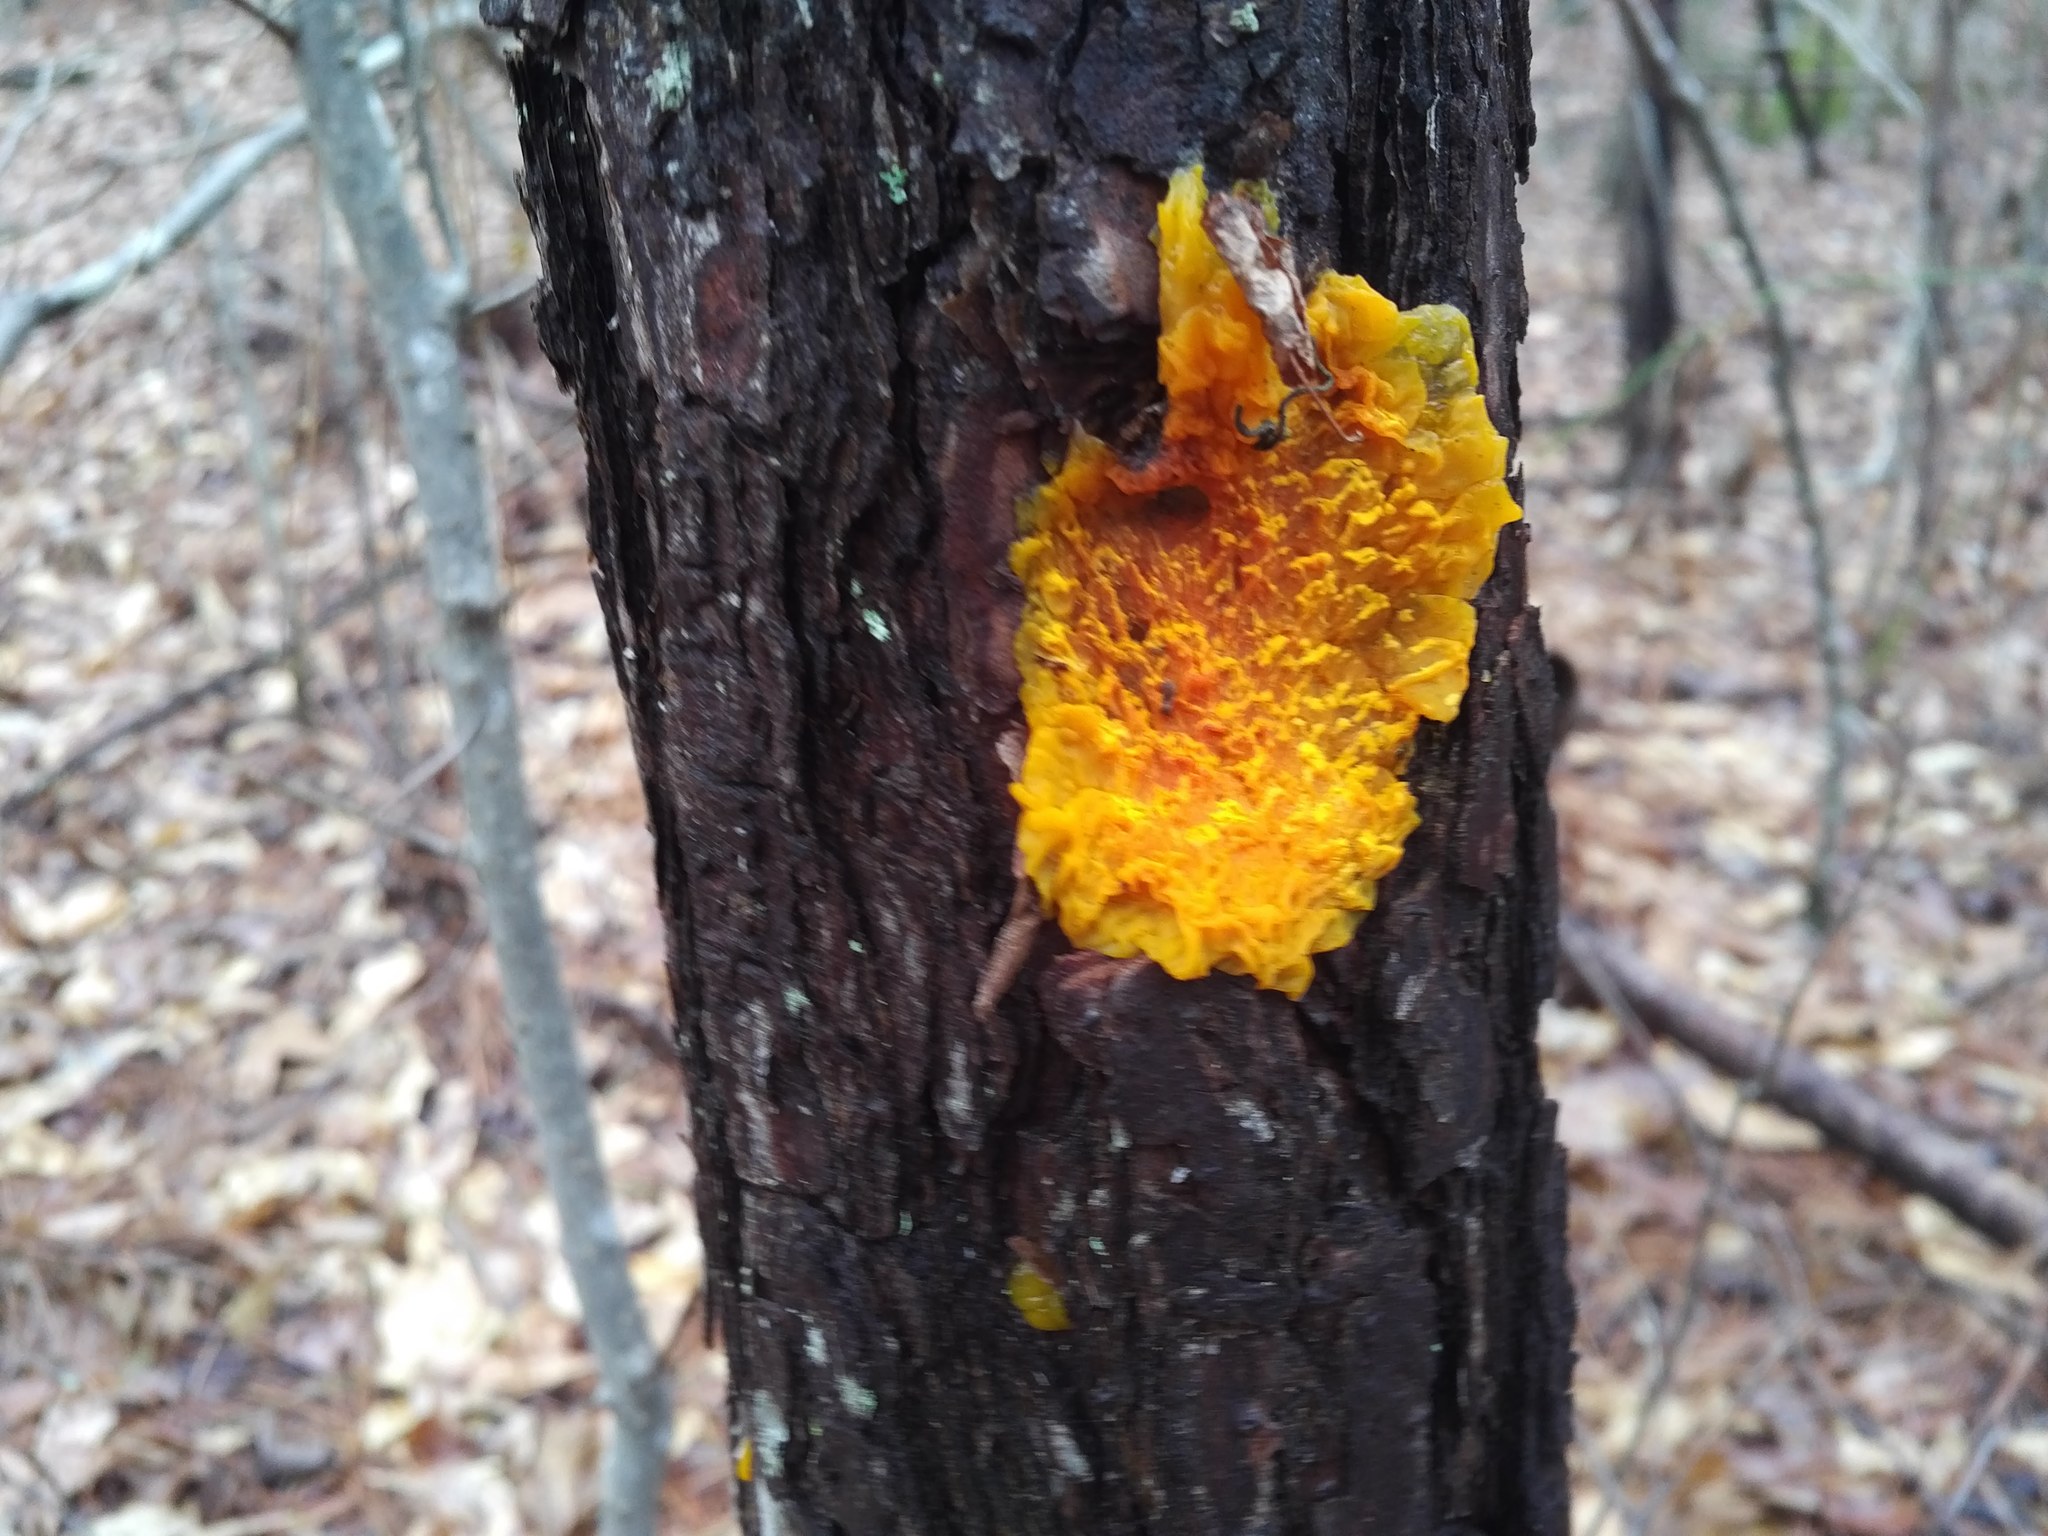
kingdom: Fungi
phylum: Basidiomycota
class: Dacrymycetes
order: Dacrymycetales
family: Dacrymycetaceae
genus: Dacrymyces
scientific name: Dacrymyces chrysospermus
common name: Orange jelly spot
